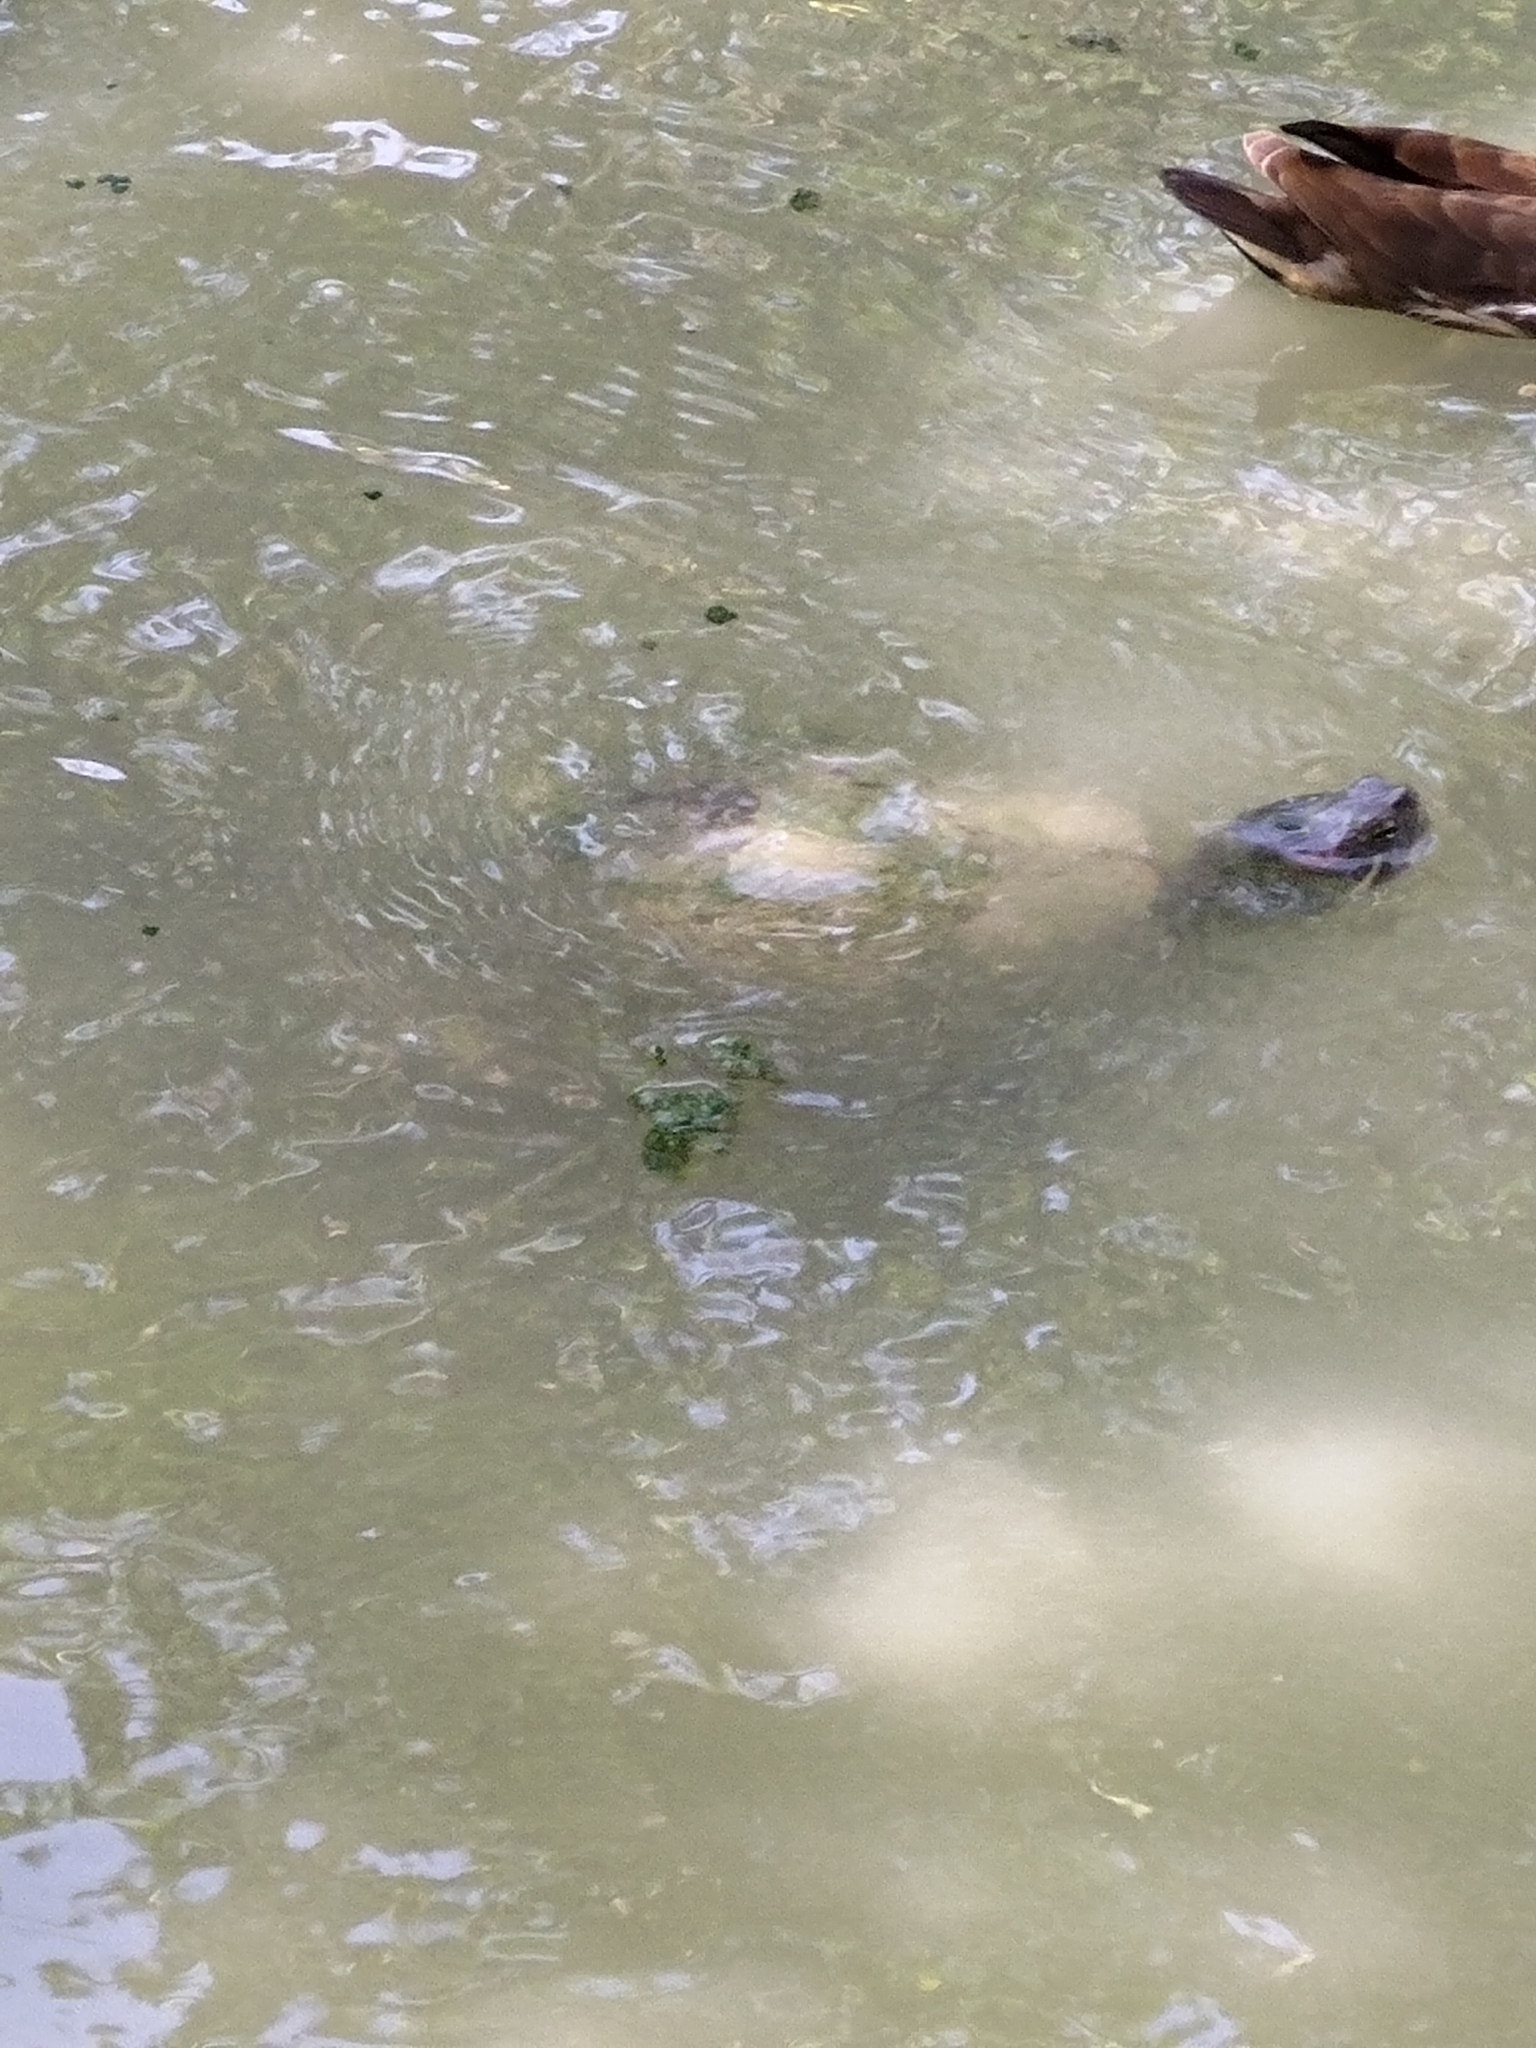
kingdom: Animalia
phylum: Chordata
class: Testudines
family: Emydidae
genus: Trachemys
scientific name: Trachemys scripta
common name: Slider
